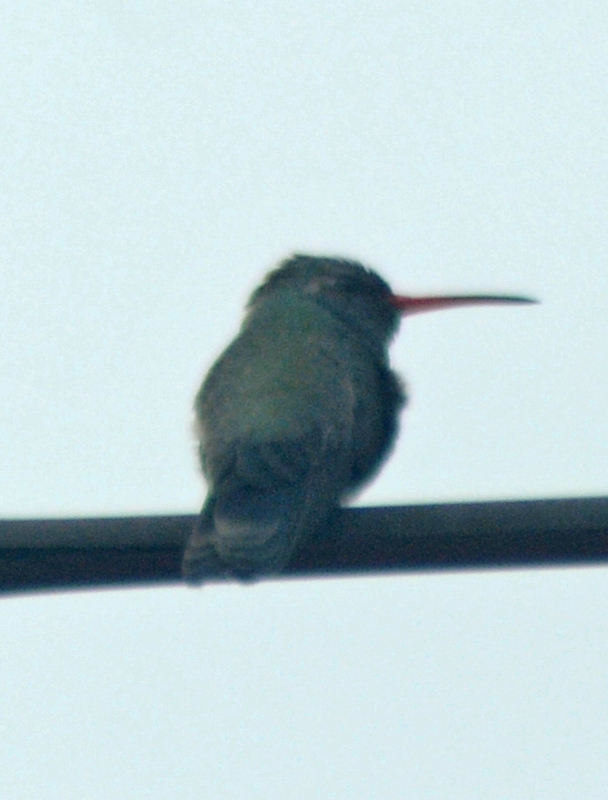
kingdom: Animalia
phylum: Chordata
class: Aves
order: Apodiformes
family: Trochilidae
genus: Cynanthus
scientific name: Cynanthus latirostris
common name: Broad-billed hummingbird
